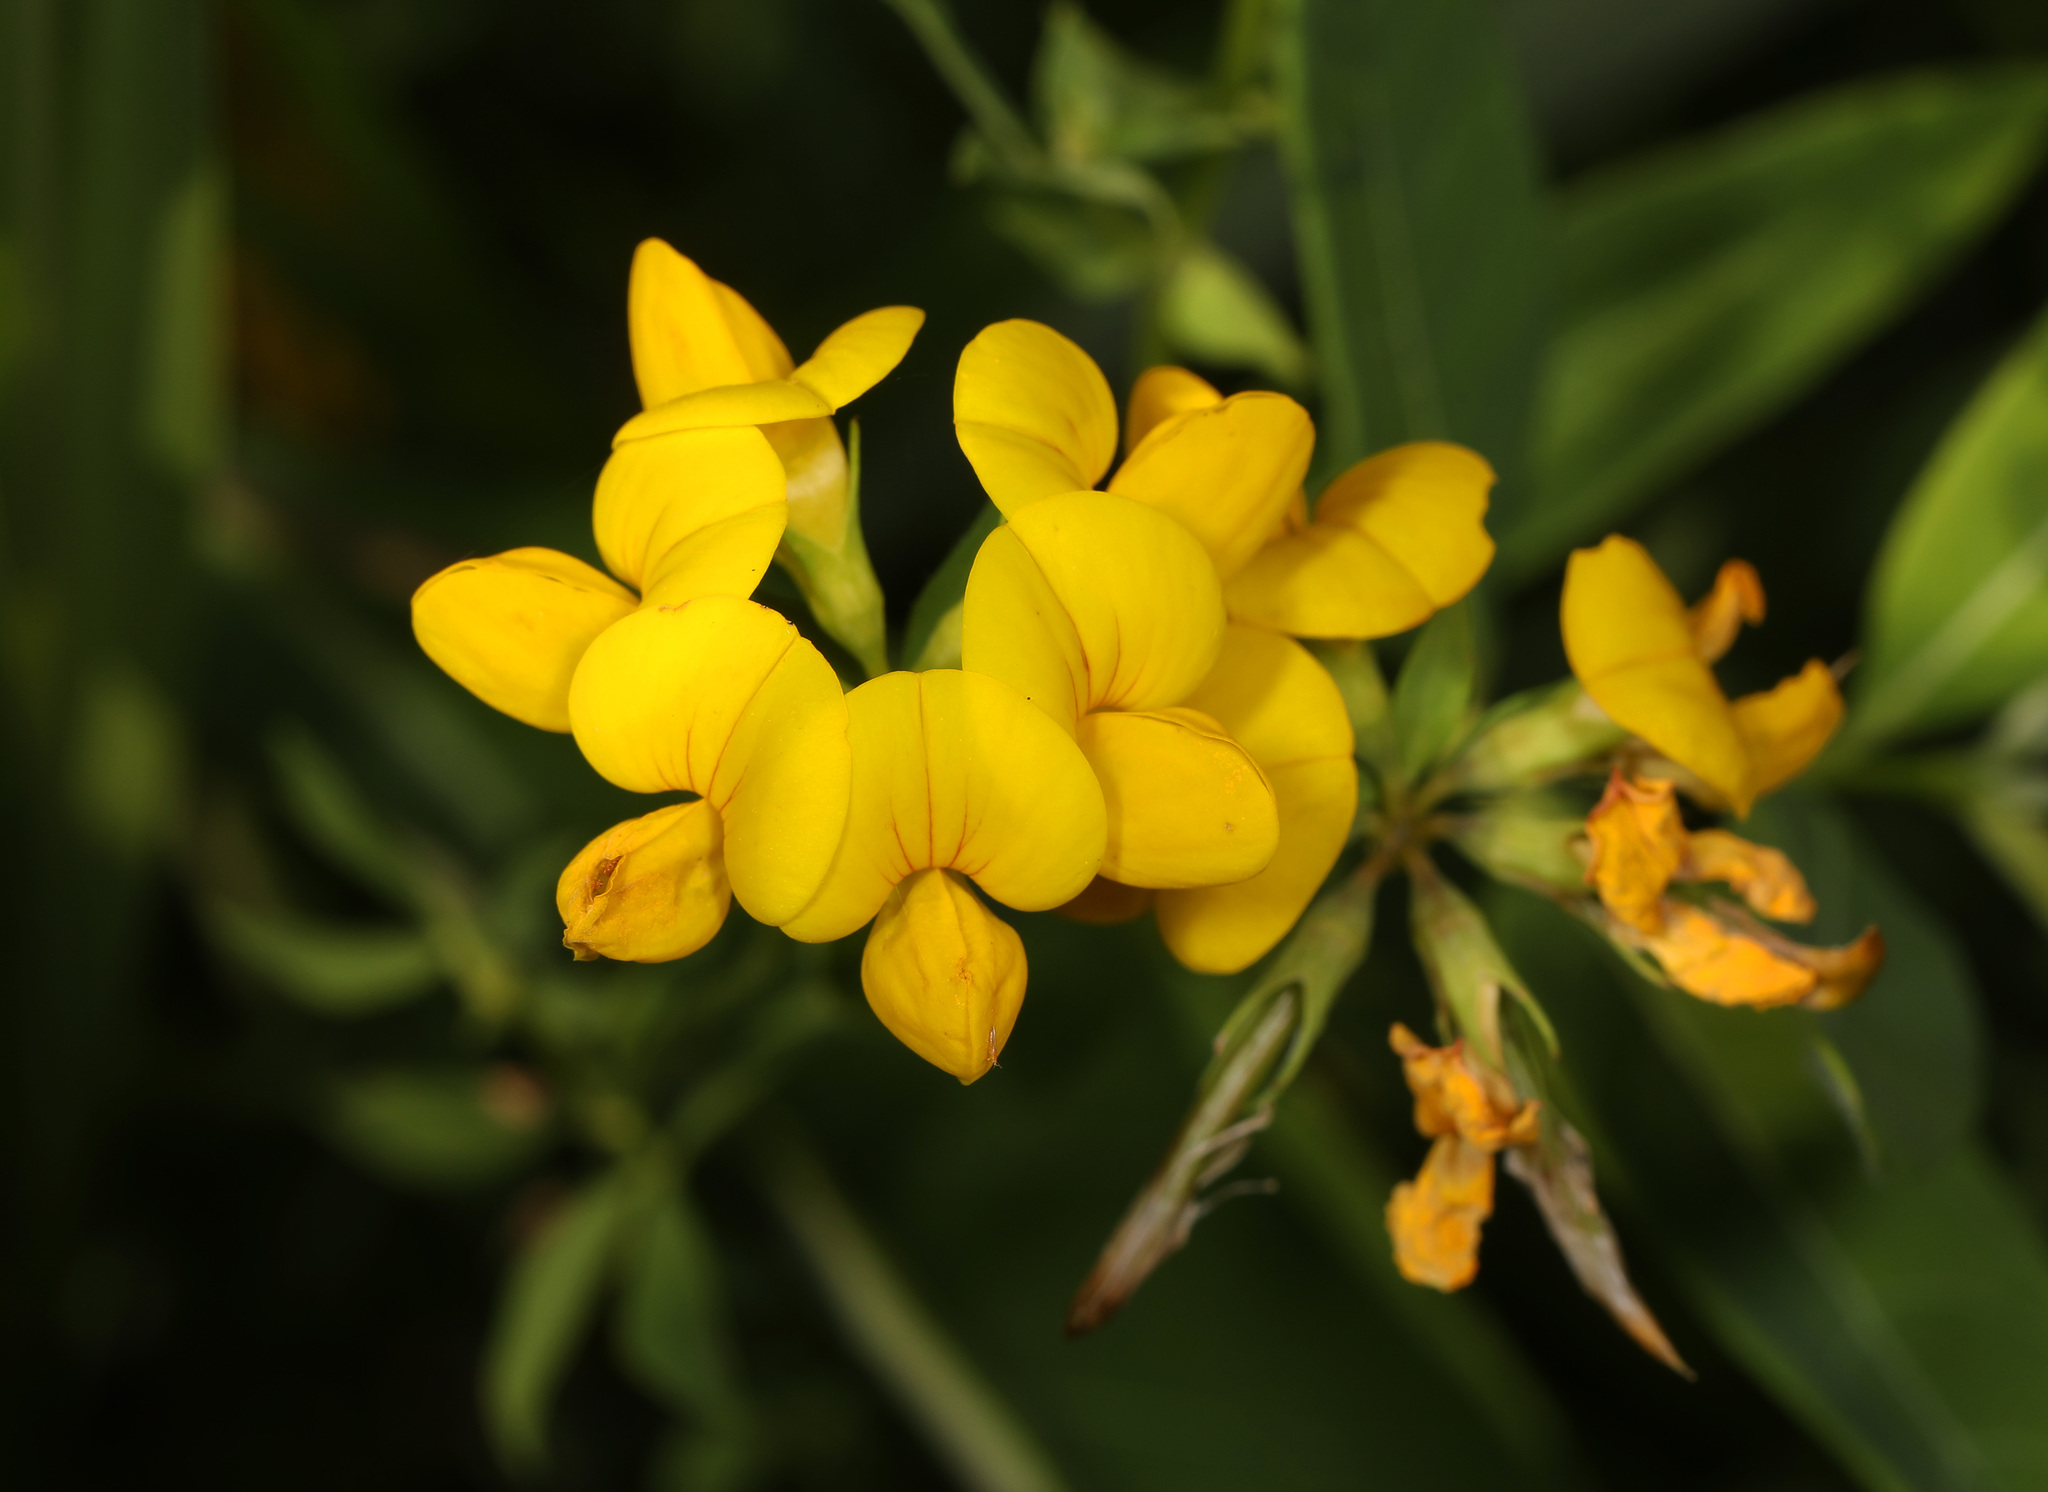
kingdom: Plantae
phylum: Tracheophyta
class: Magnoliopsida
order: Fabales
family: Fabaceae
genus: Lotus
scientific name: Lotus corniculatus
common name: Common bird's-foot-trefoil
